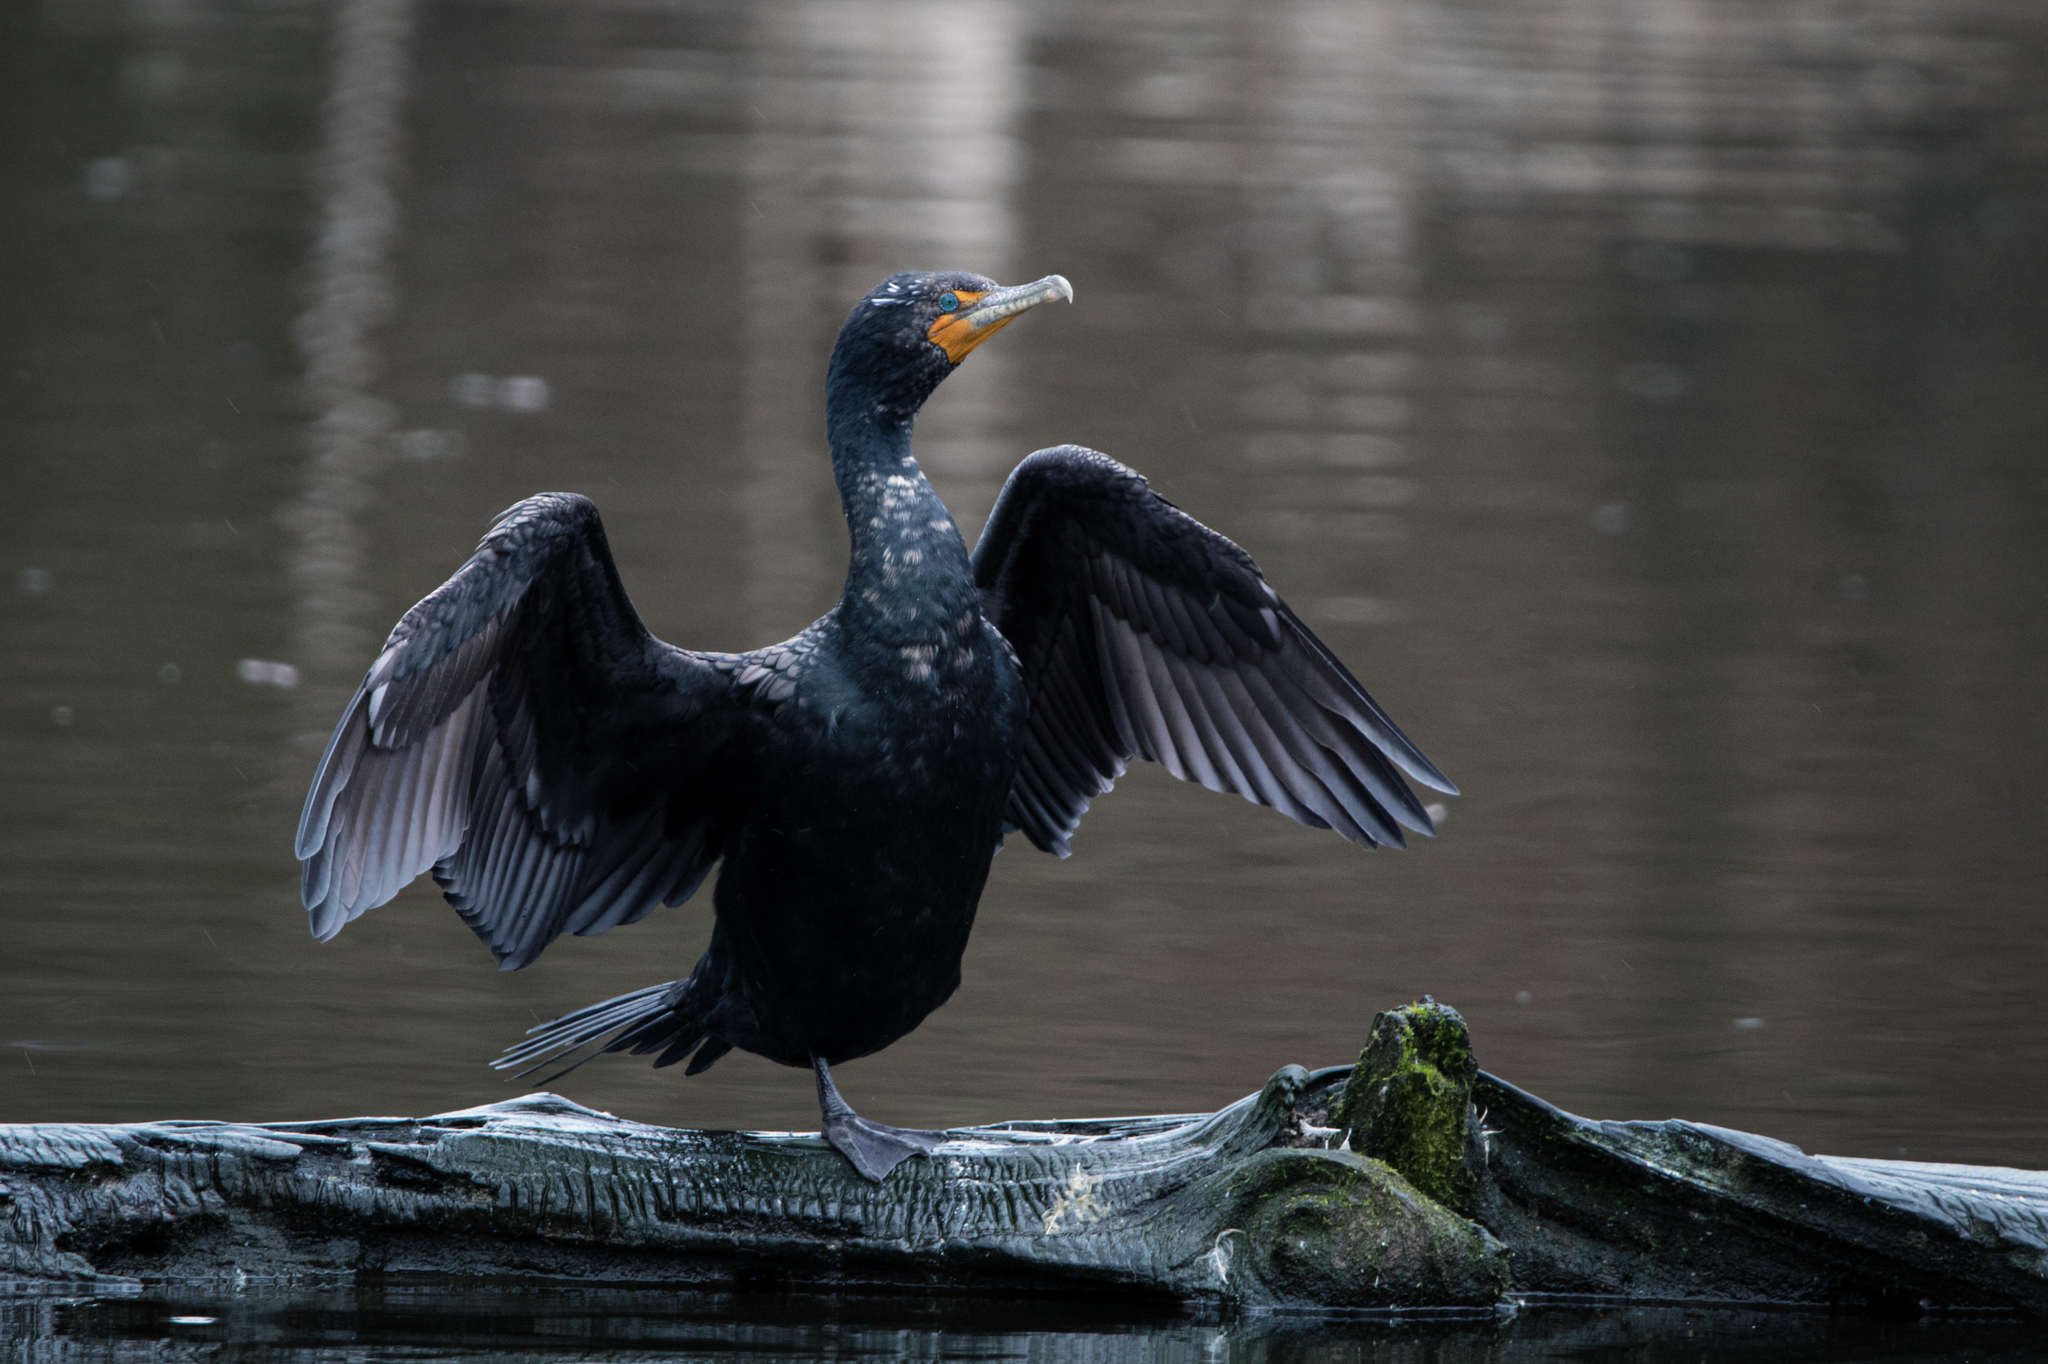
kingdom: Animalia
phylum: Chordata
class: Aves
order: Suliformes
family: Phalacrocoracidae
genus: Phalacrocorax
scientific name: Phalacrocorax auritus
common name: Double-crested cormorant
